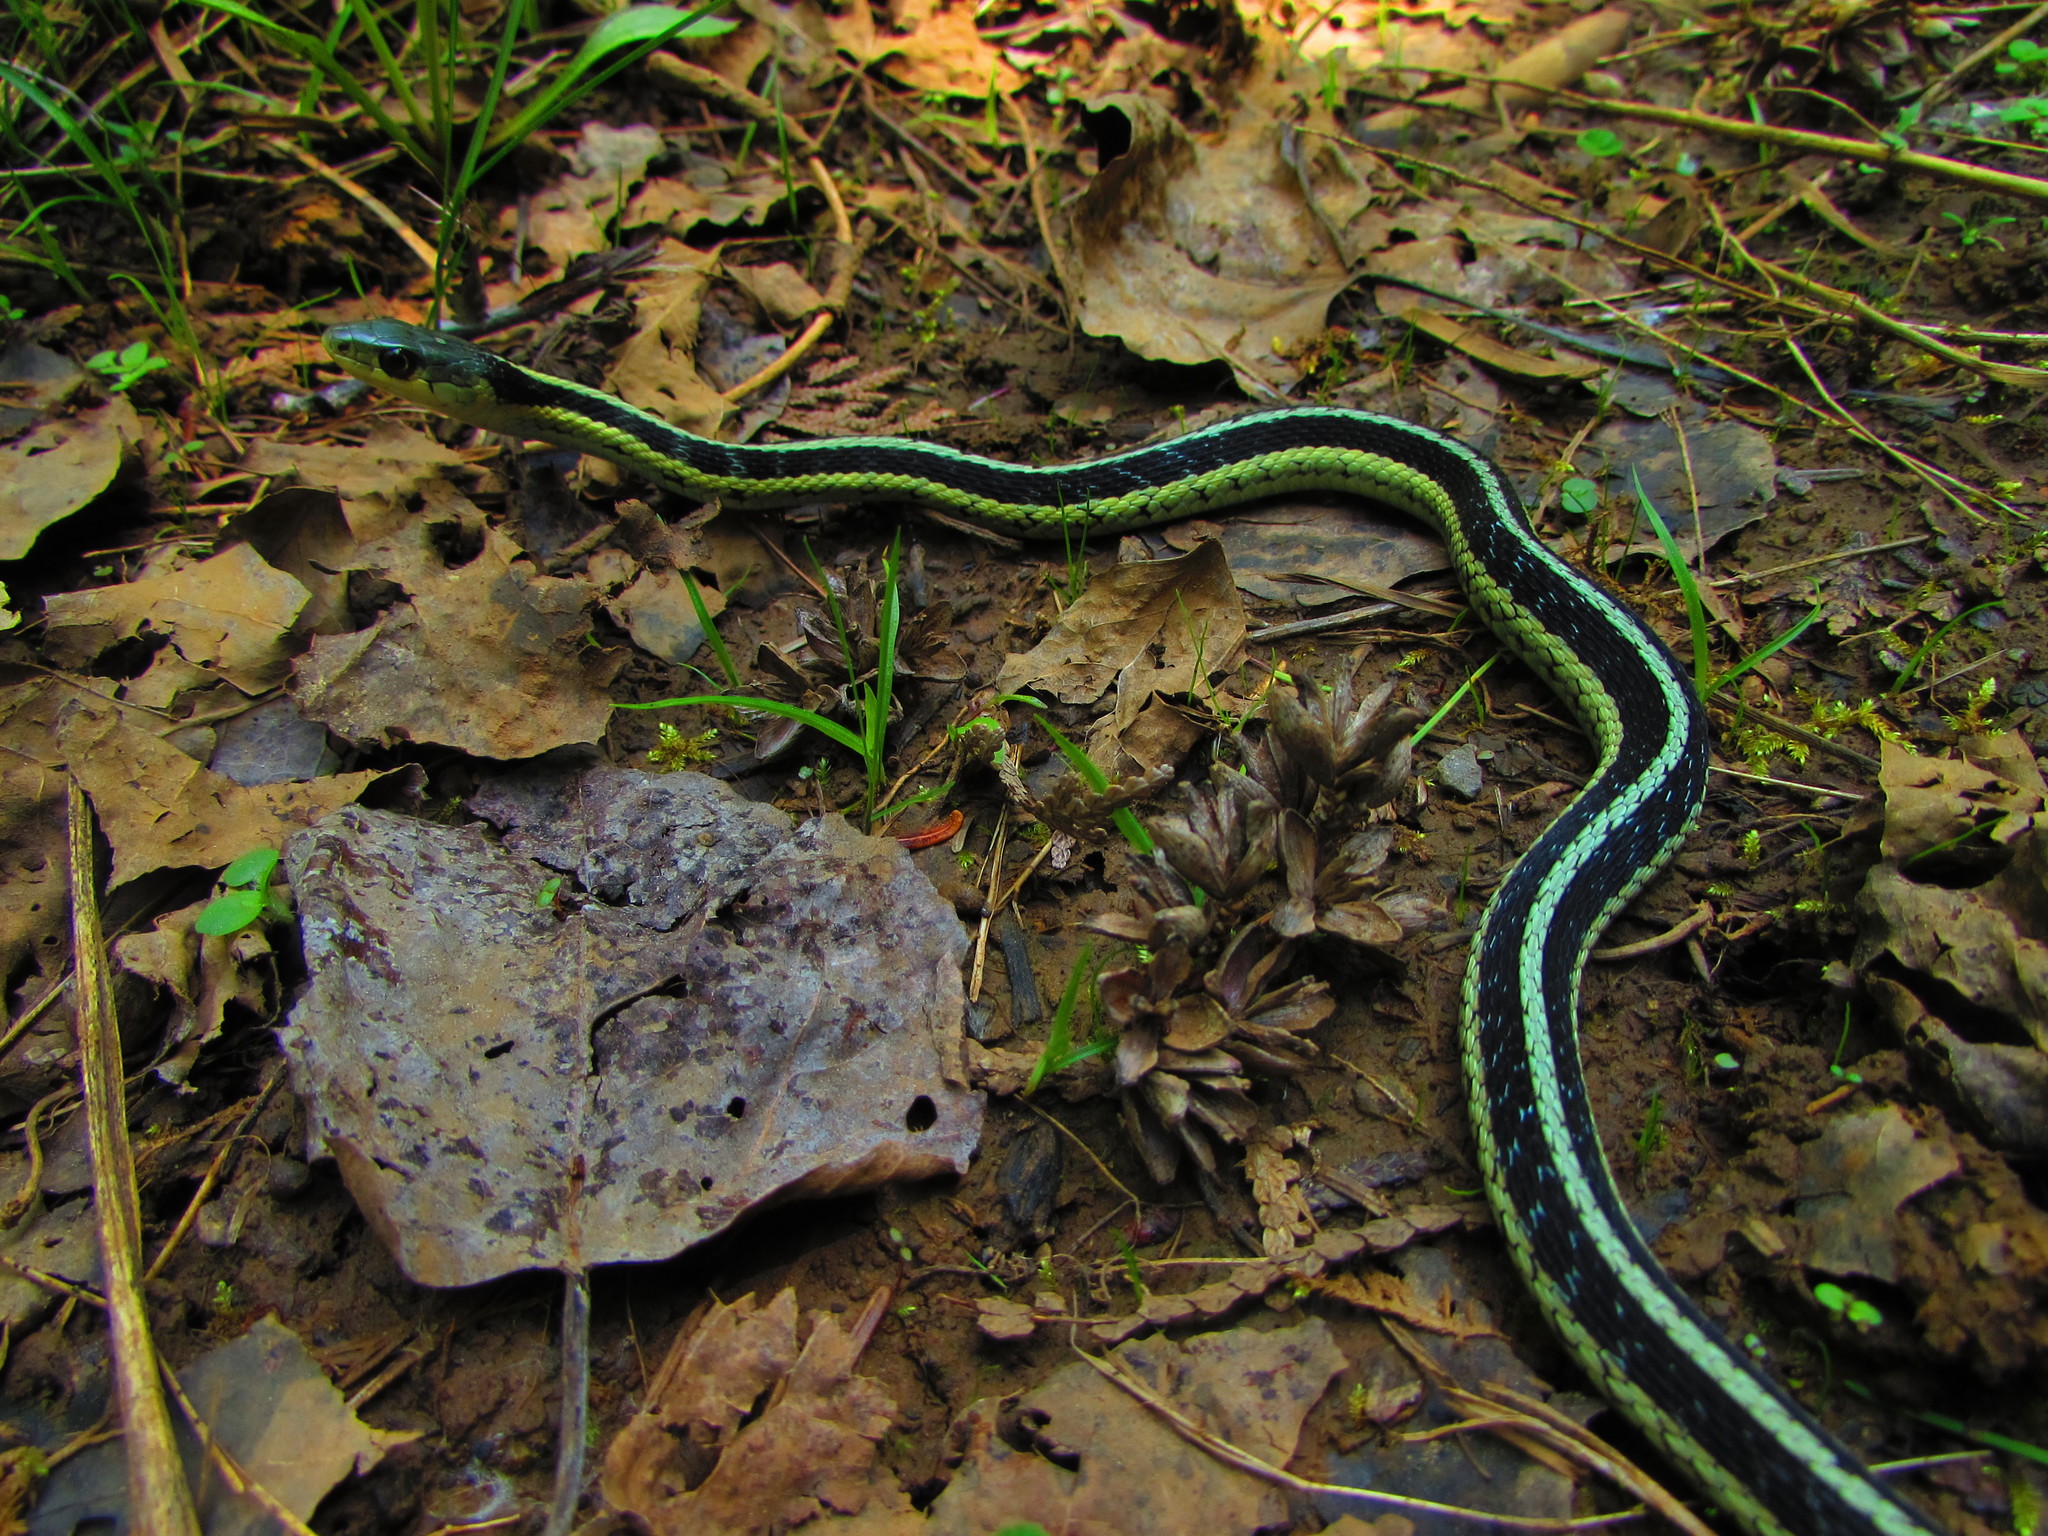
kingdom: Animalia
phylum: Chordata
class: Squamata
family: Colubridae
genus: Thamnophis
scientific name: Thamnophis sirtalis
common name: Common garter snake
